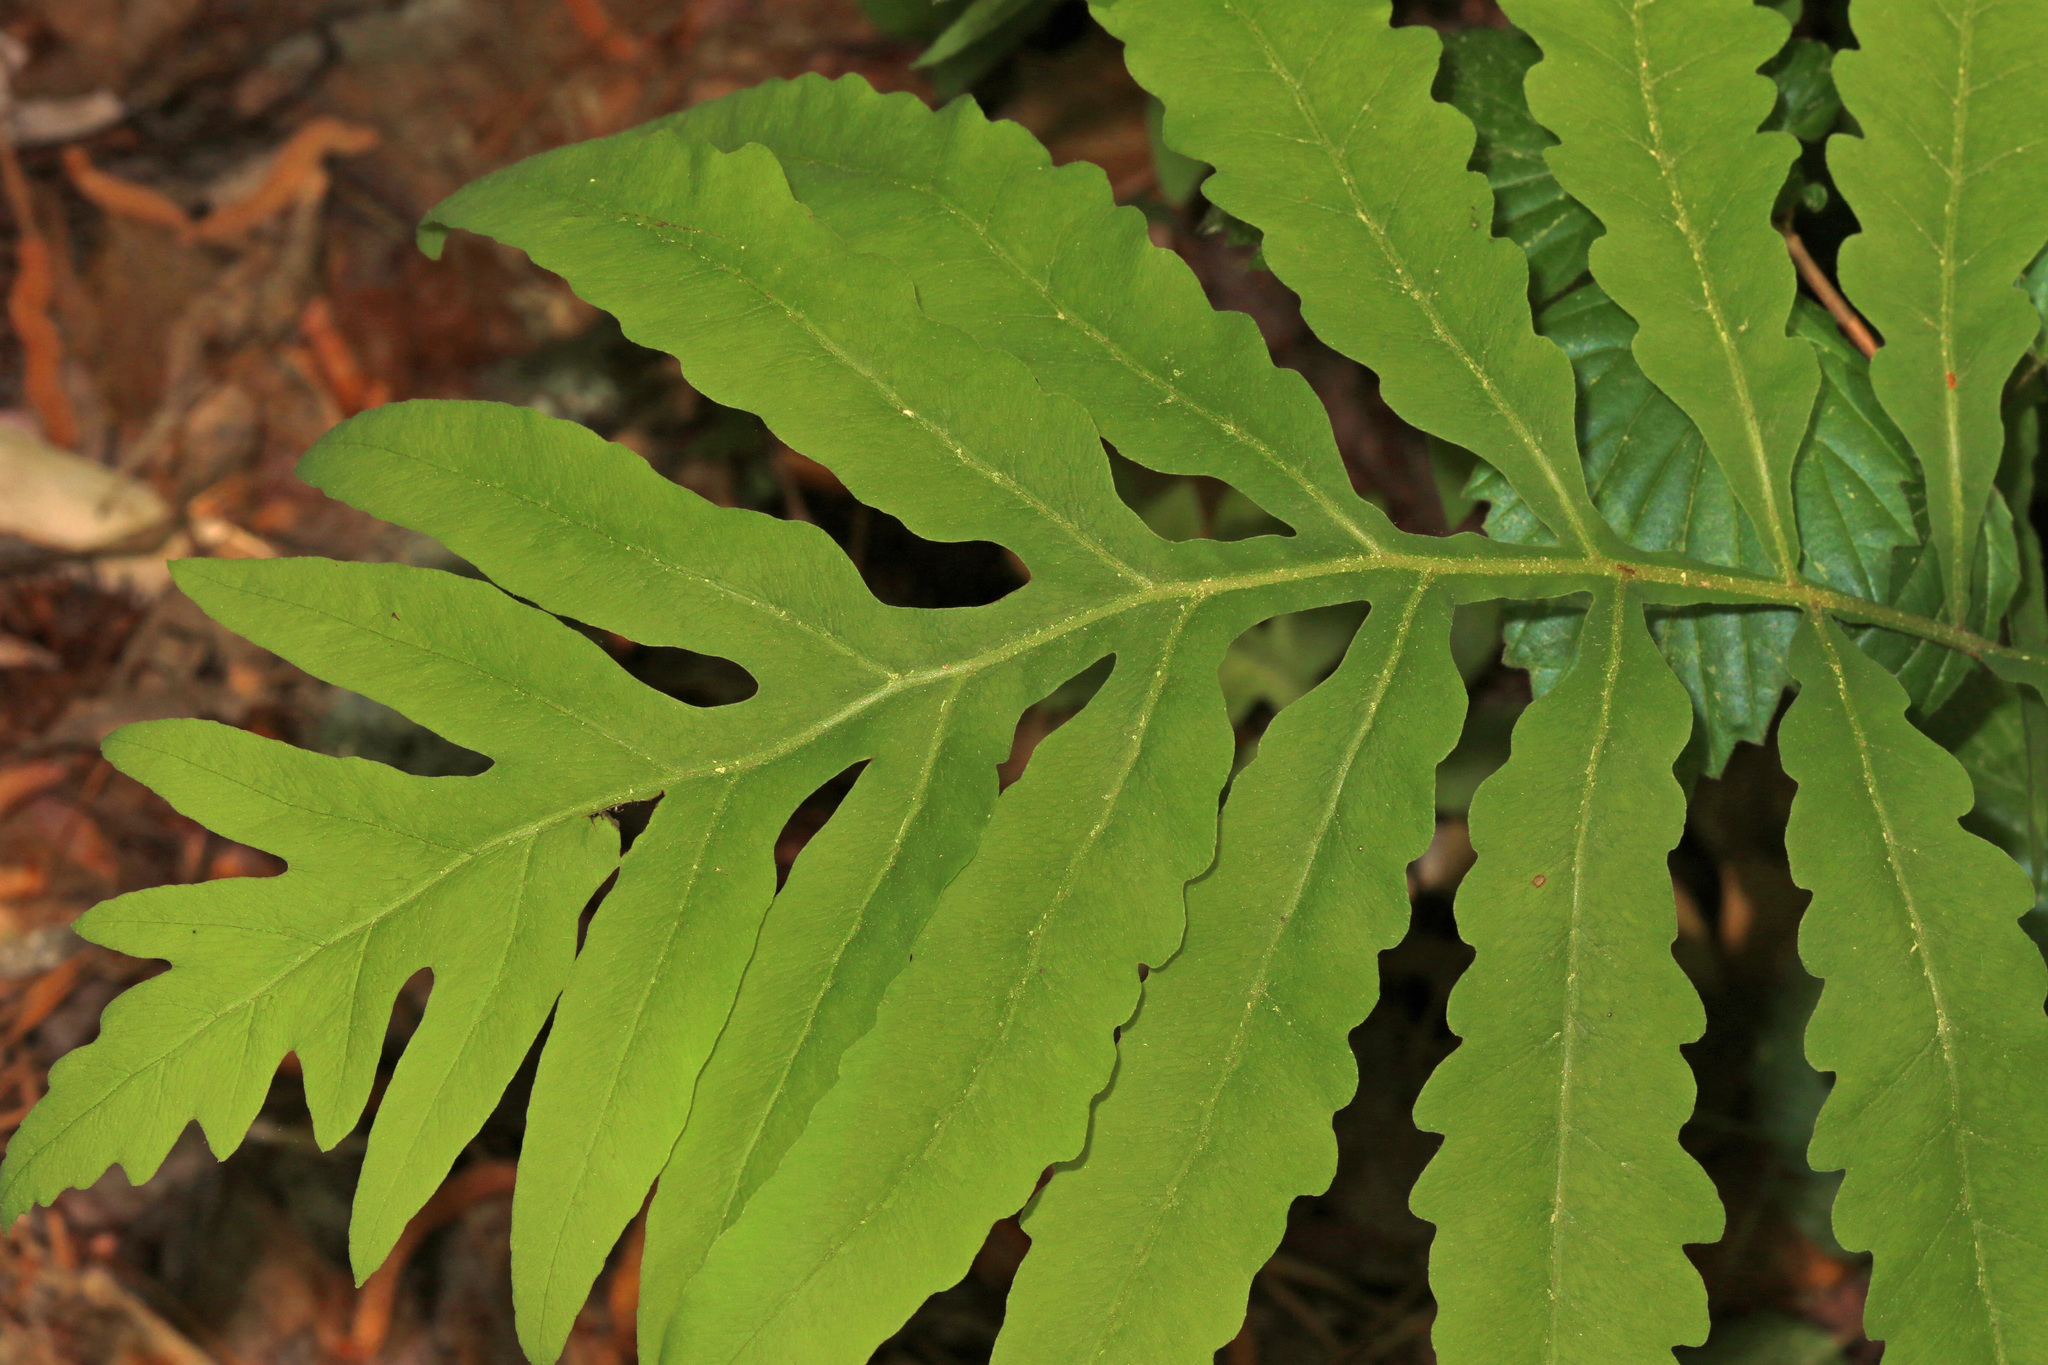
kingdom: Plantae
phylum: Tracheophyta
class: Polypodiopsida
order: Polypodiales
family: Onocleaceae
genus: Onoclea
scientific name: Onoclea sensibilis
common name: Sensitive fern
